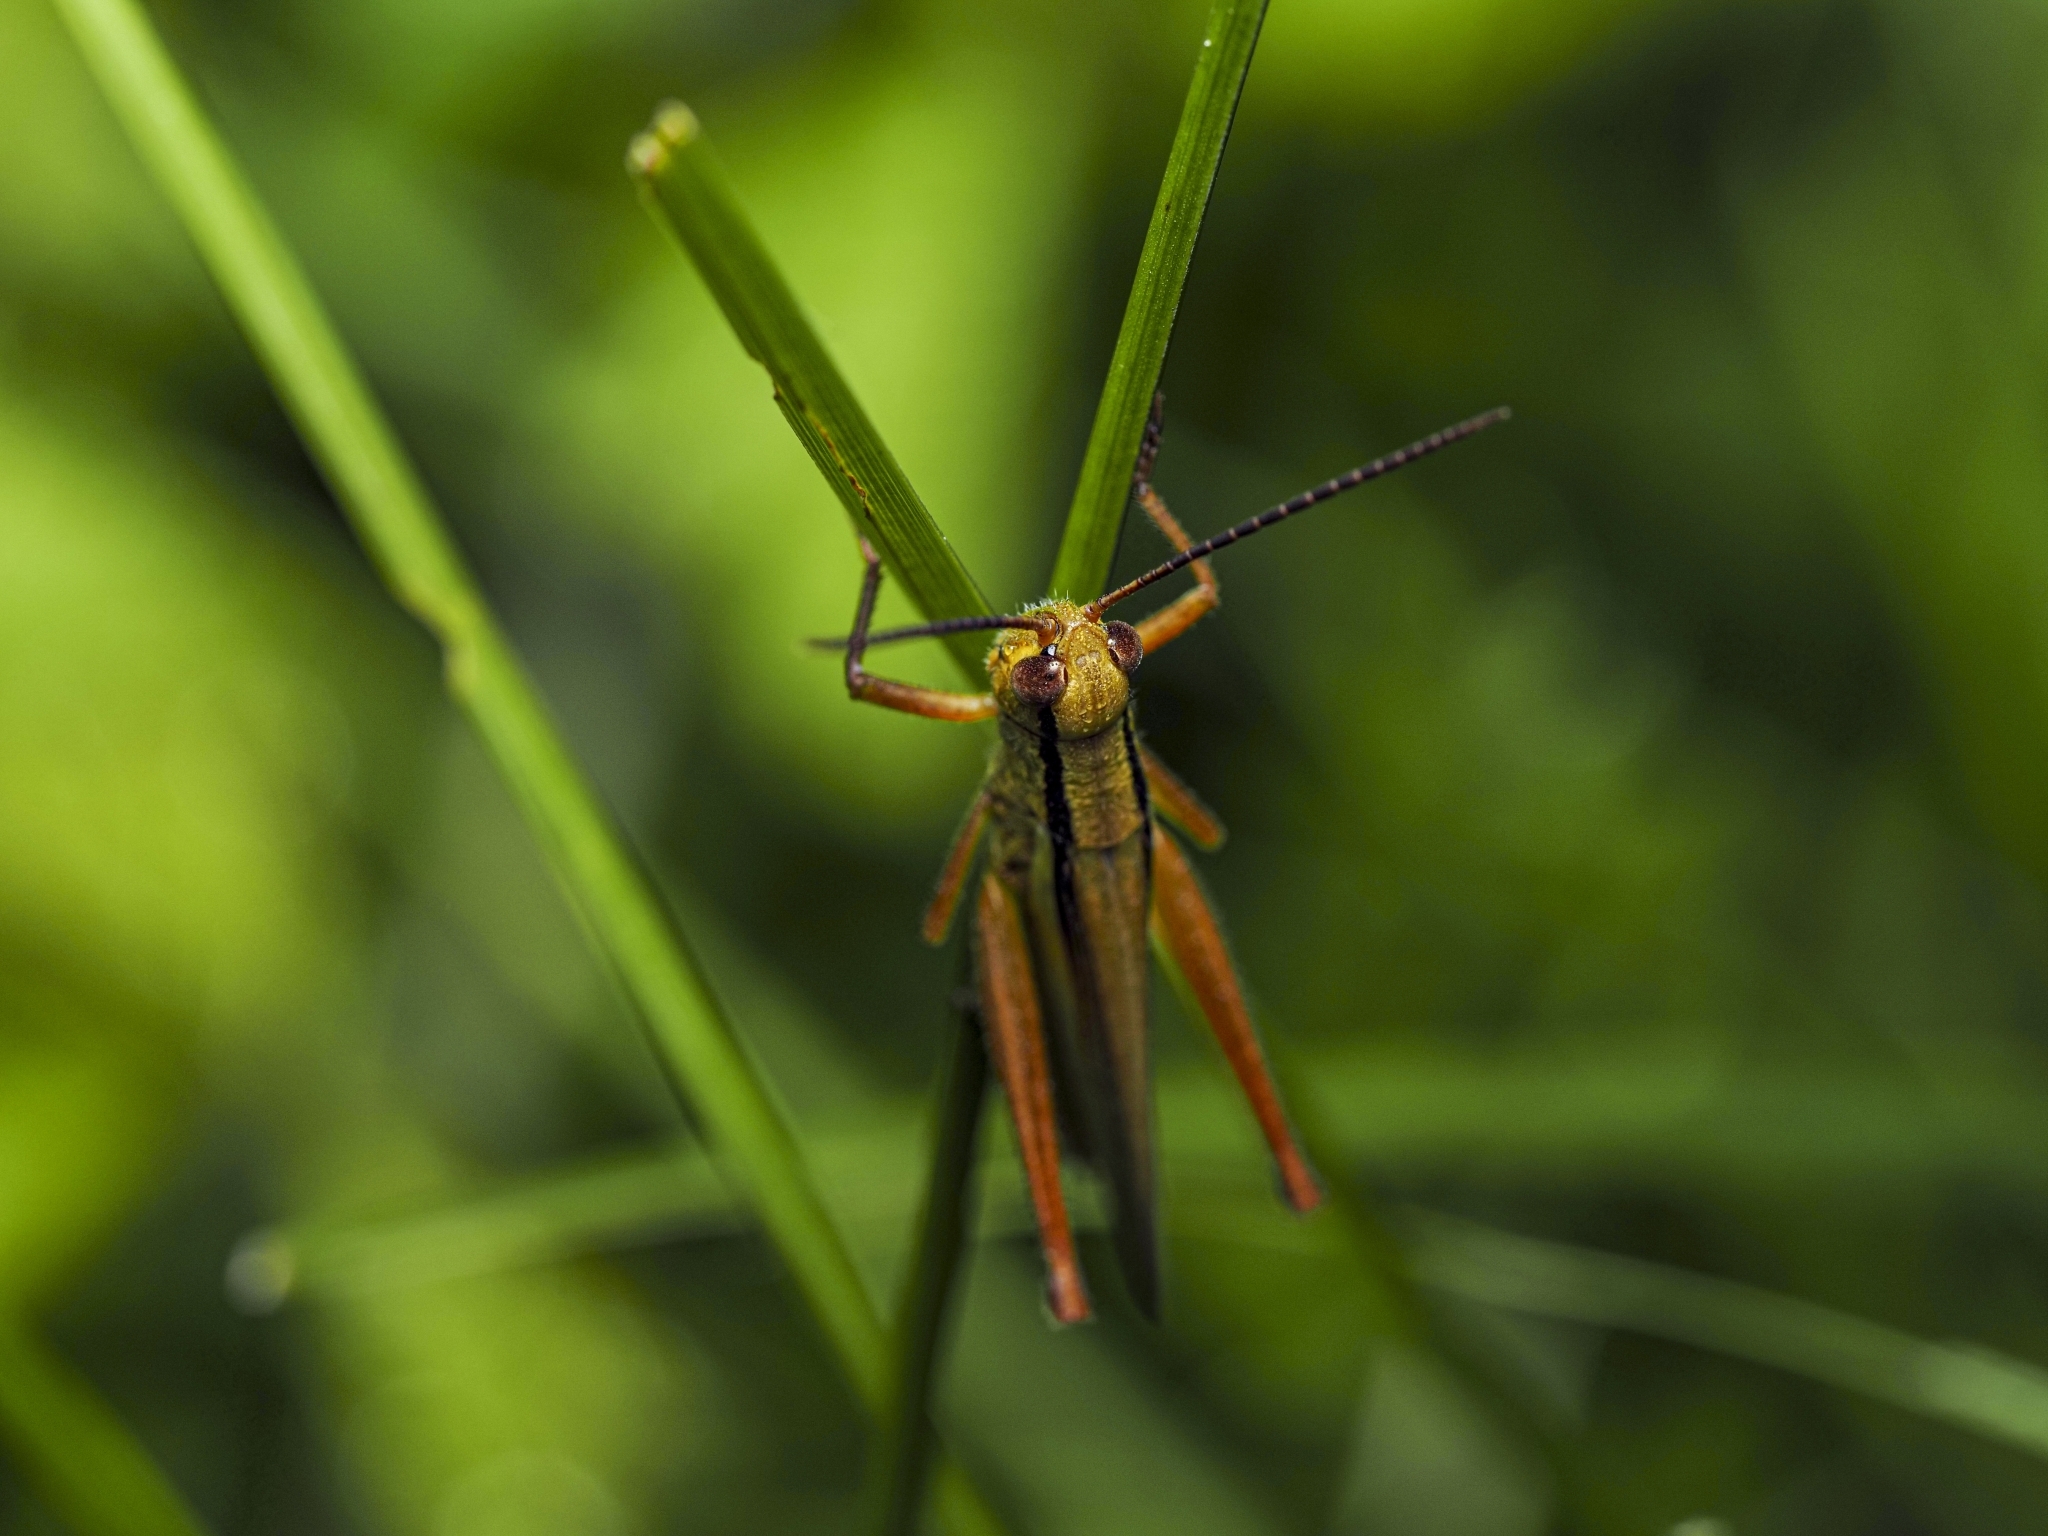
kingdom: Animalia
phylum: Arthropoda
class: Insecta
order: Orthoptera
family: Acrididae
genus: Mecostethus
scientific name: Mecostethus parapleurus
